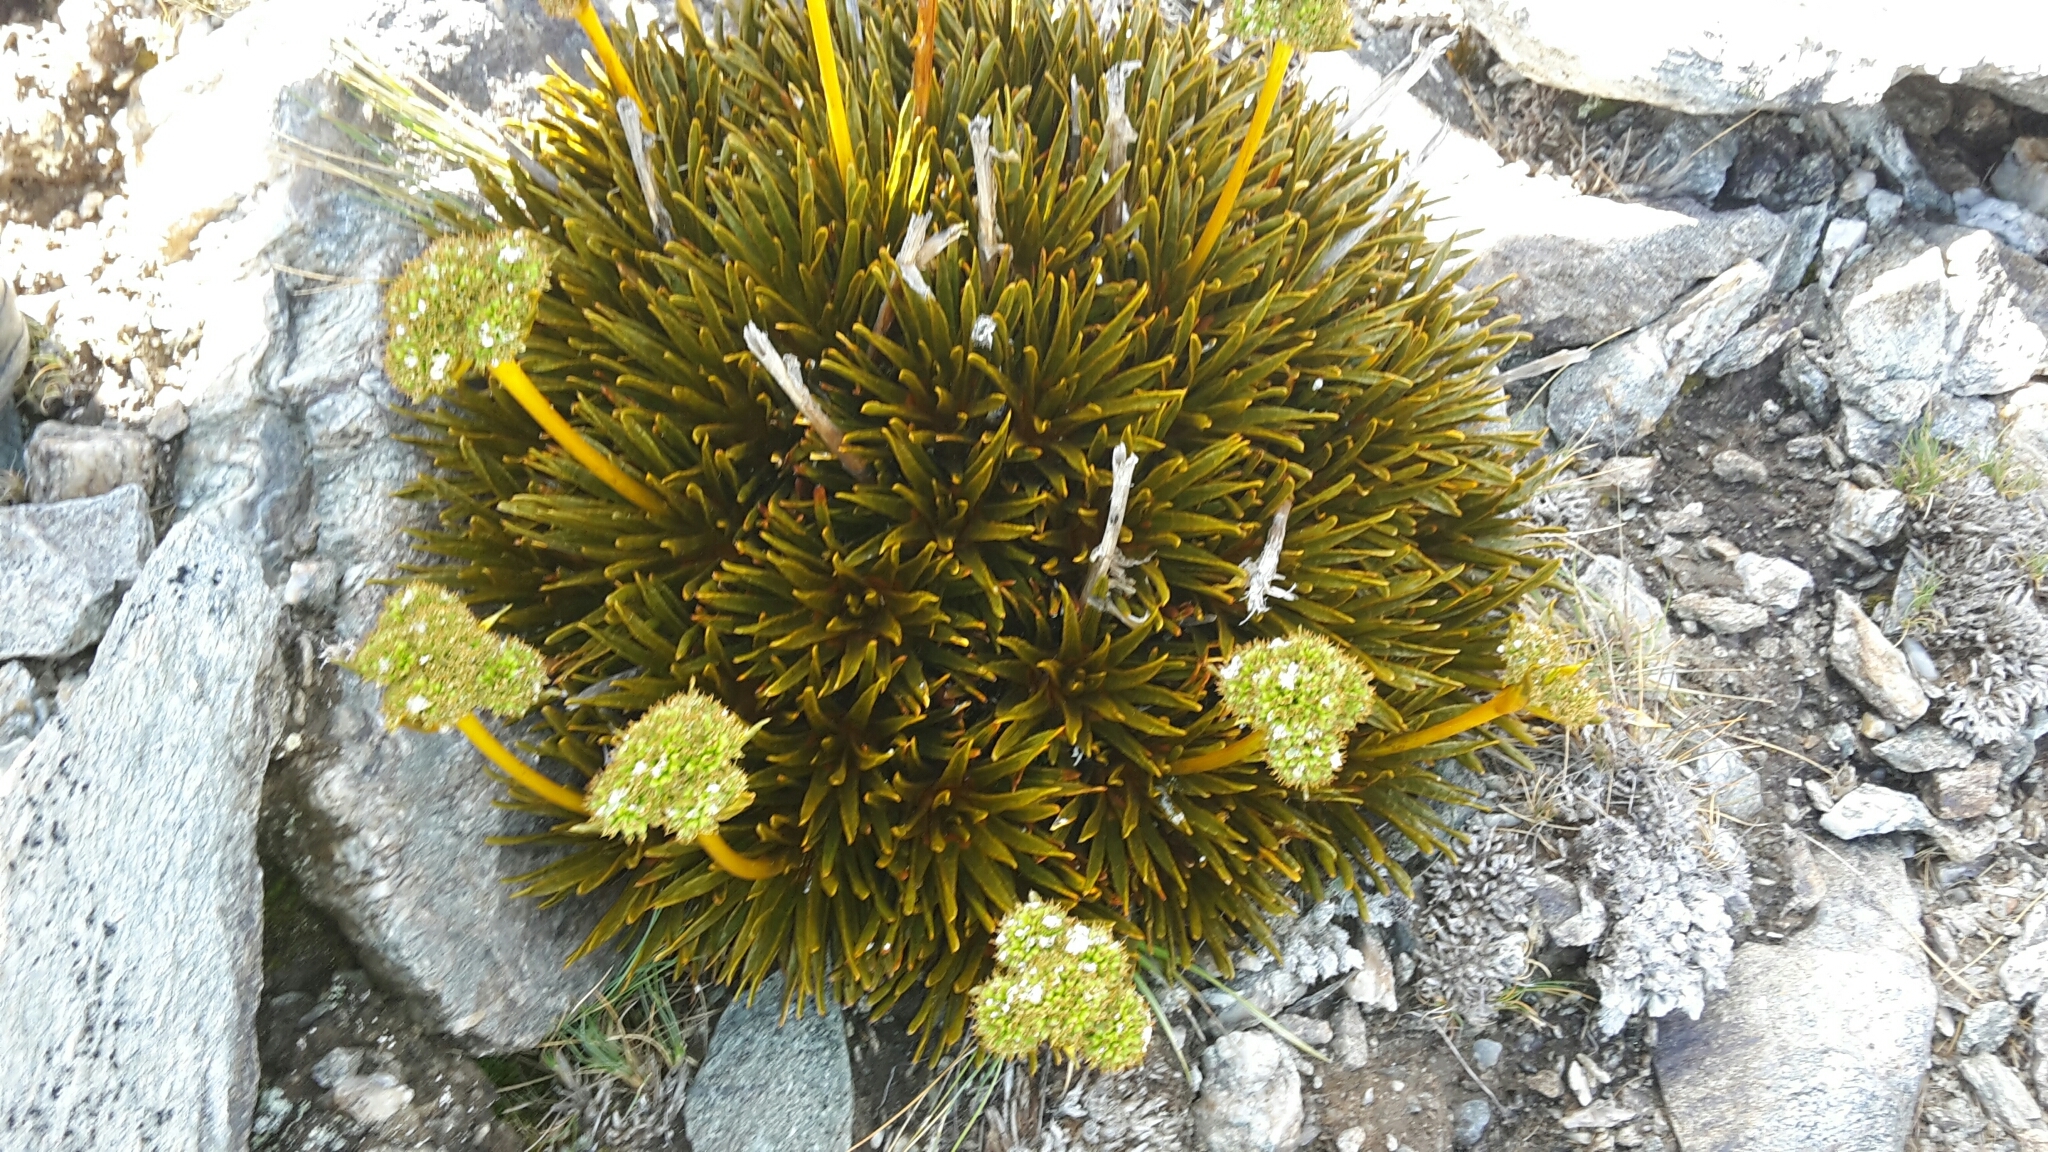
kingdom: Plantae
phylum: Tracheophyta
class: Magnoliopsida
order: Apiales
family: Apiaceae
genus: Aciphylla
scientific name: Aciphylla simplex
